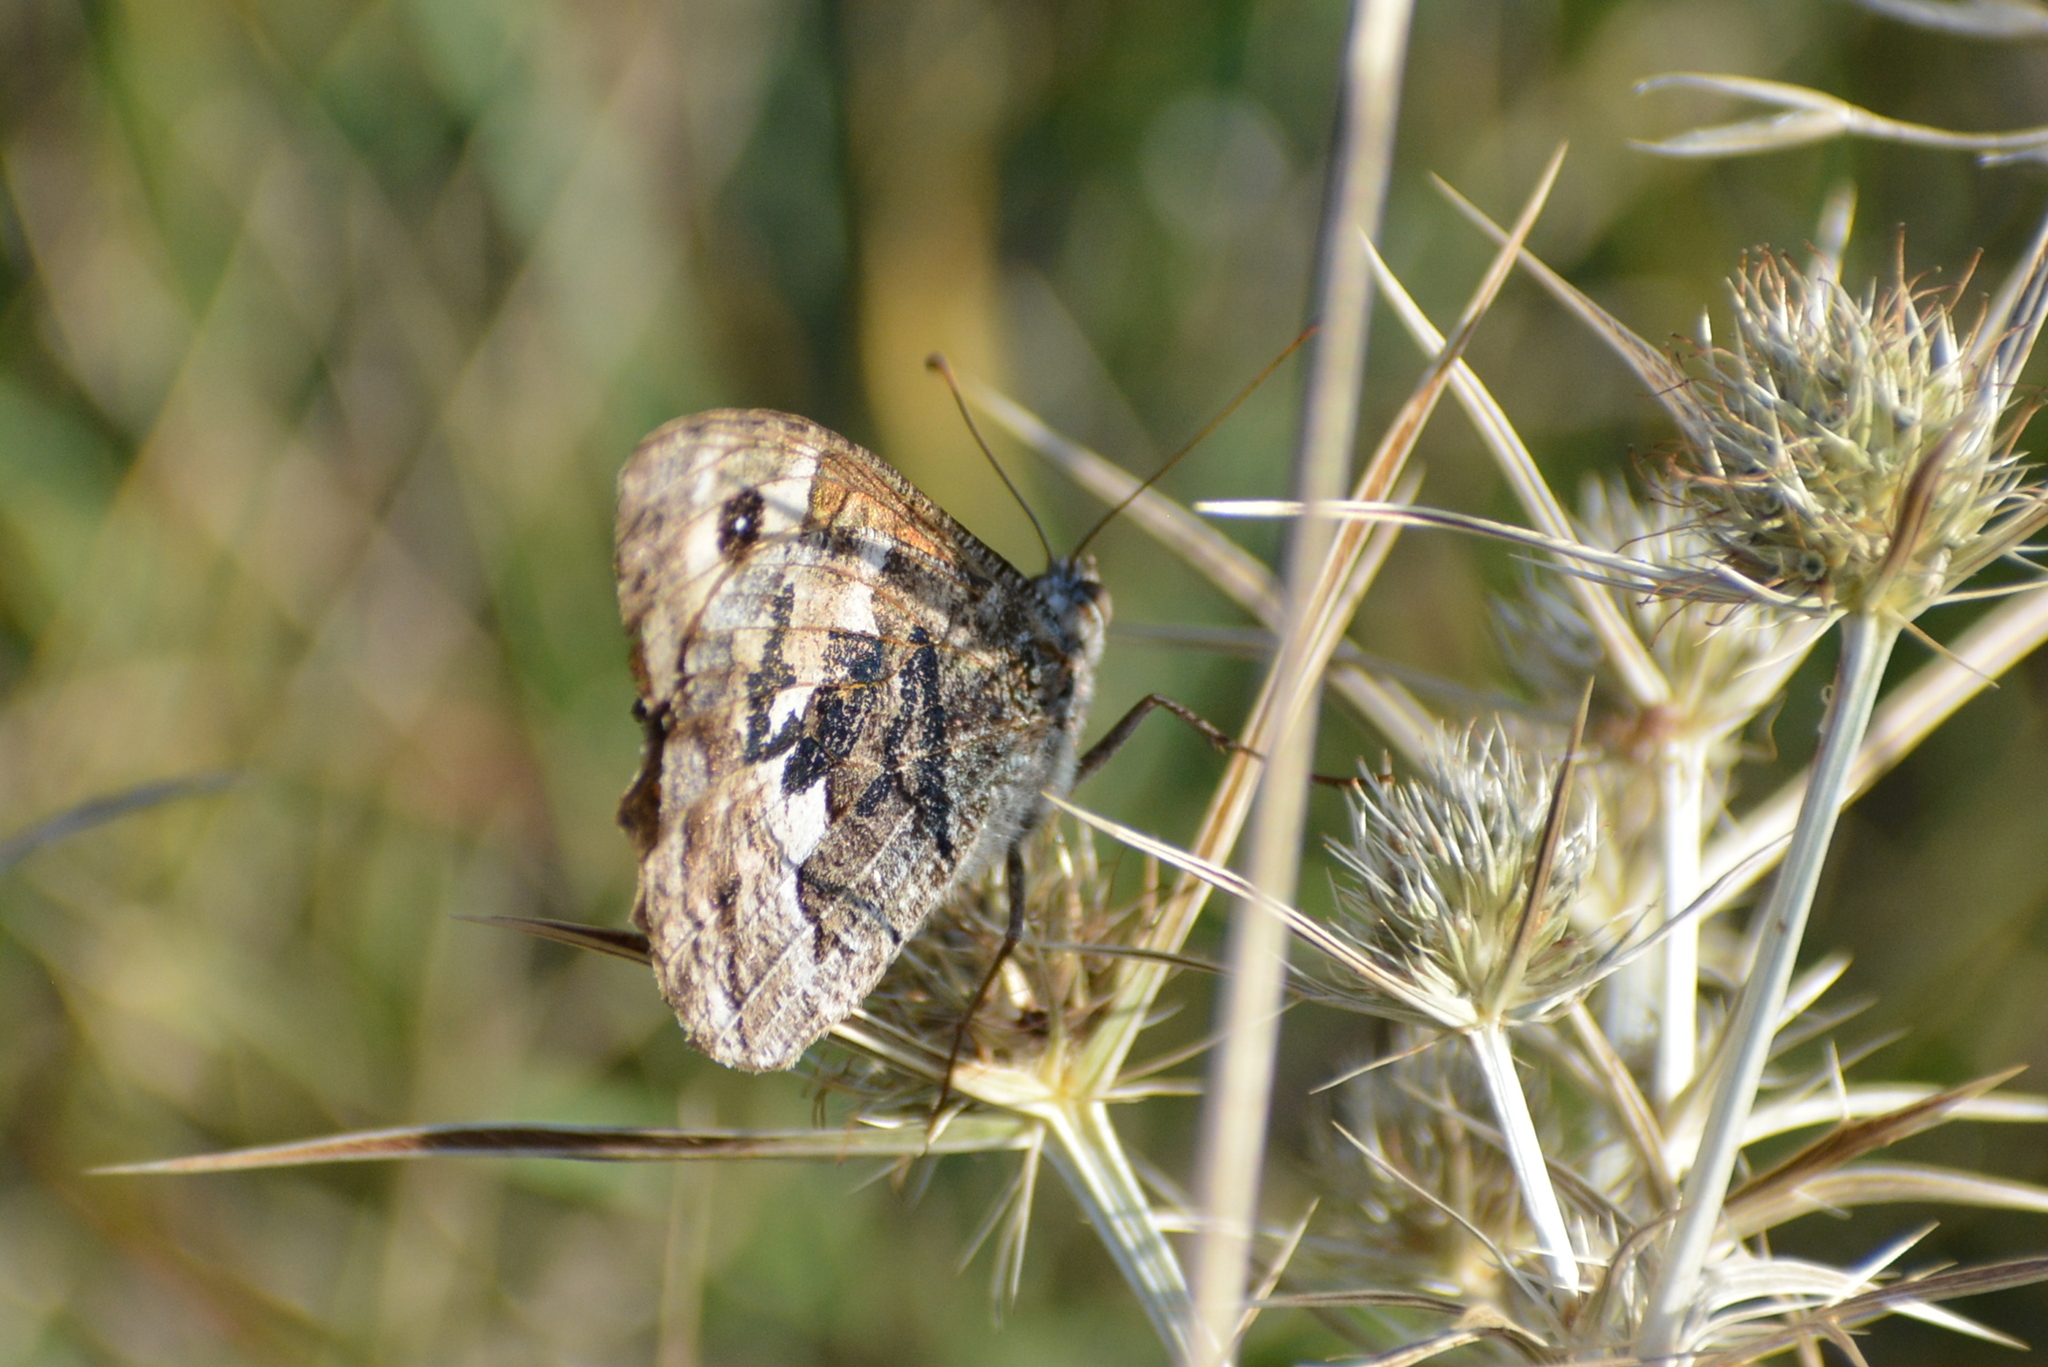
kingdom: Animalia
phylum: Arthropoda
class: Insecta
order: Lepidoptera
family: Nymphalidae
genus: Hipparchia
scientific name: Hipparchia semele
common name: Grayling
